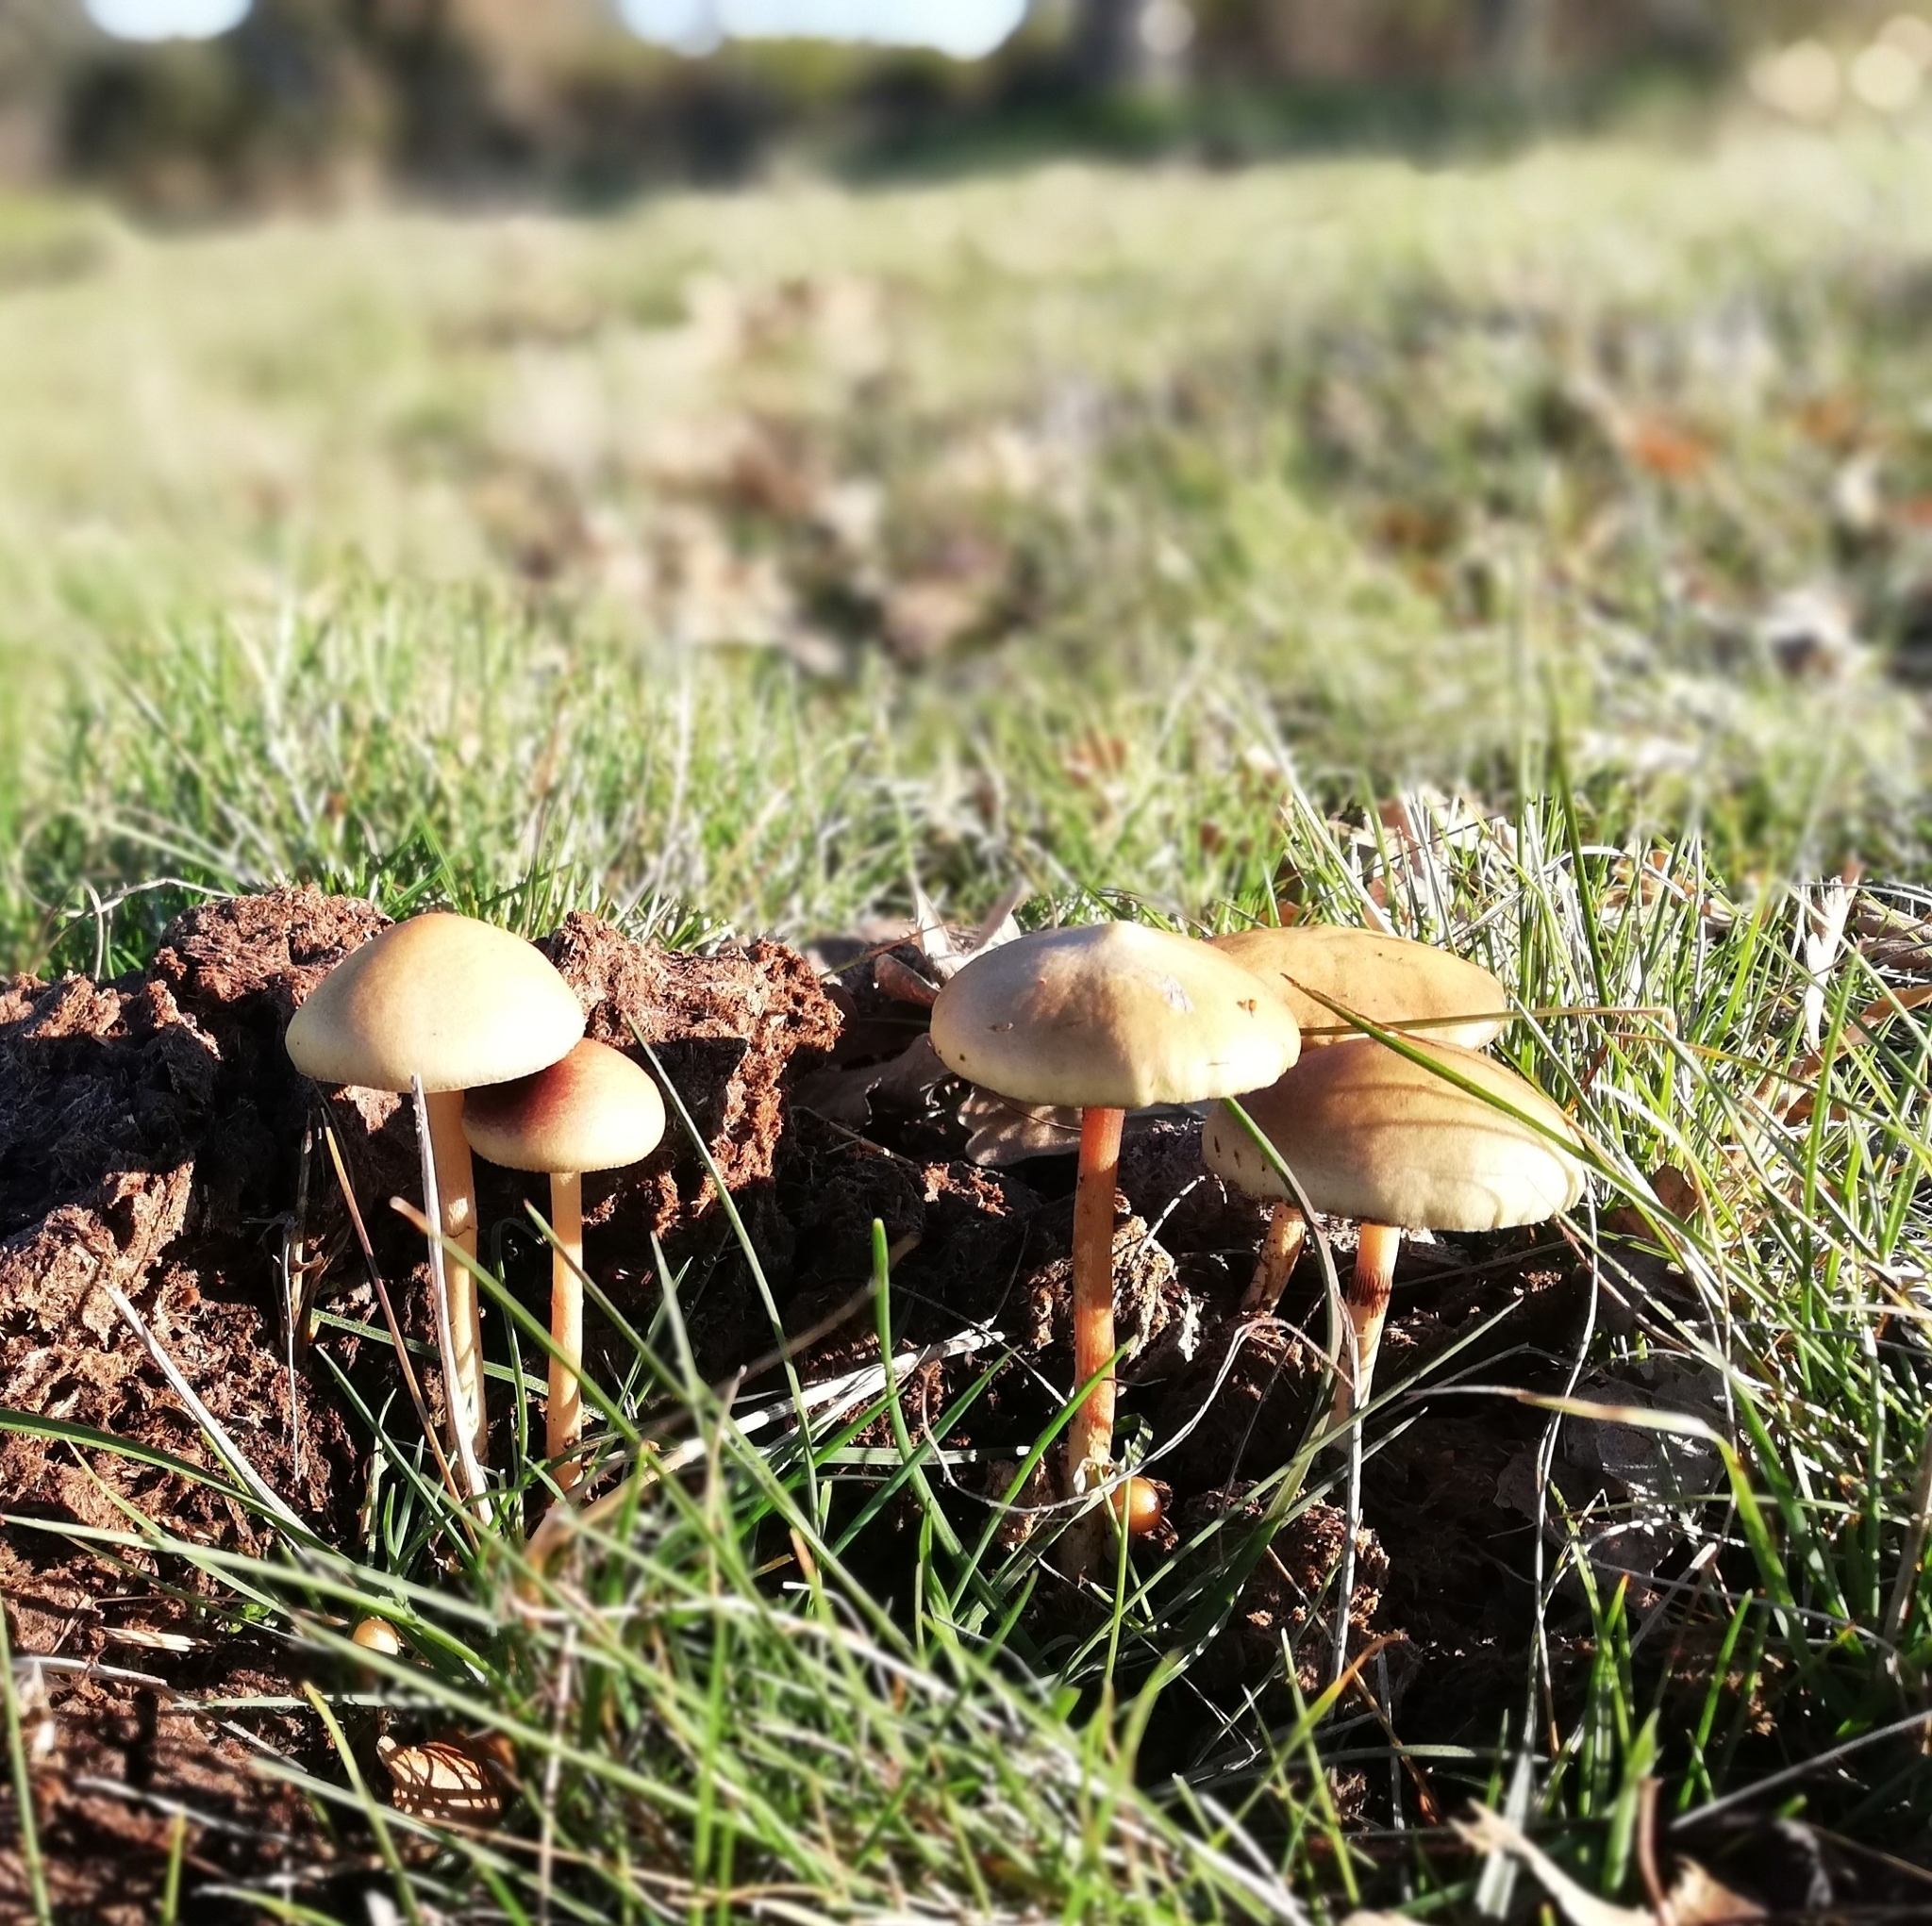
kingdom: Fungi
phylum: Basidiomycota
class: Agaricomycetes
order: Agaricales
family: Strophariaceae
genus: Deconica
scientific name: Deconica coprophila
